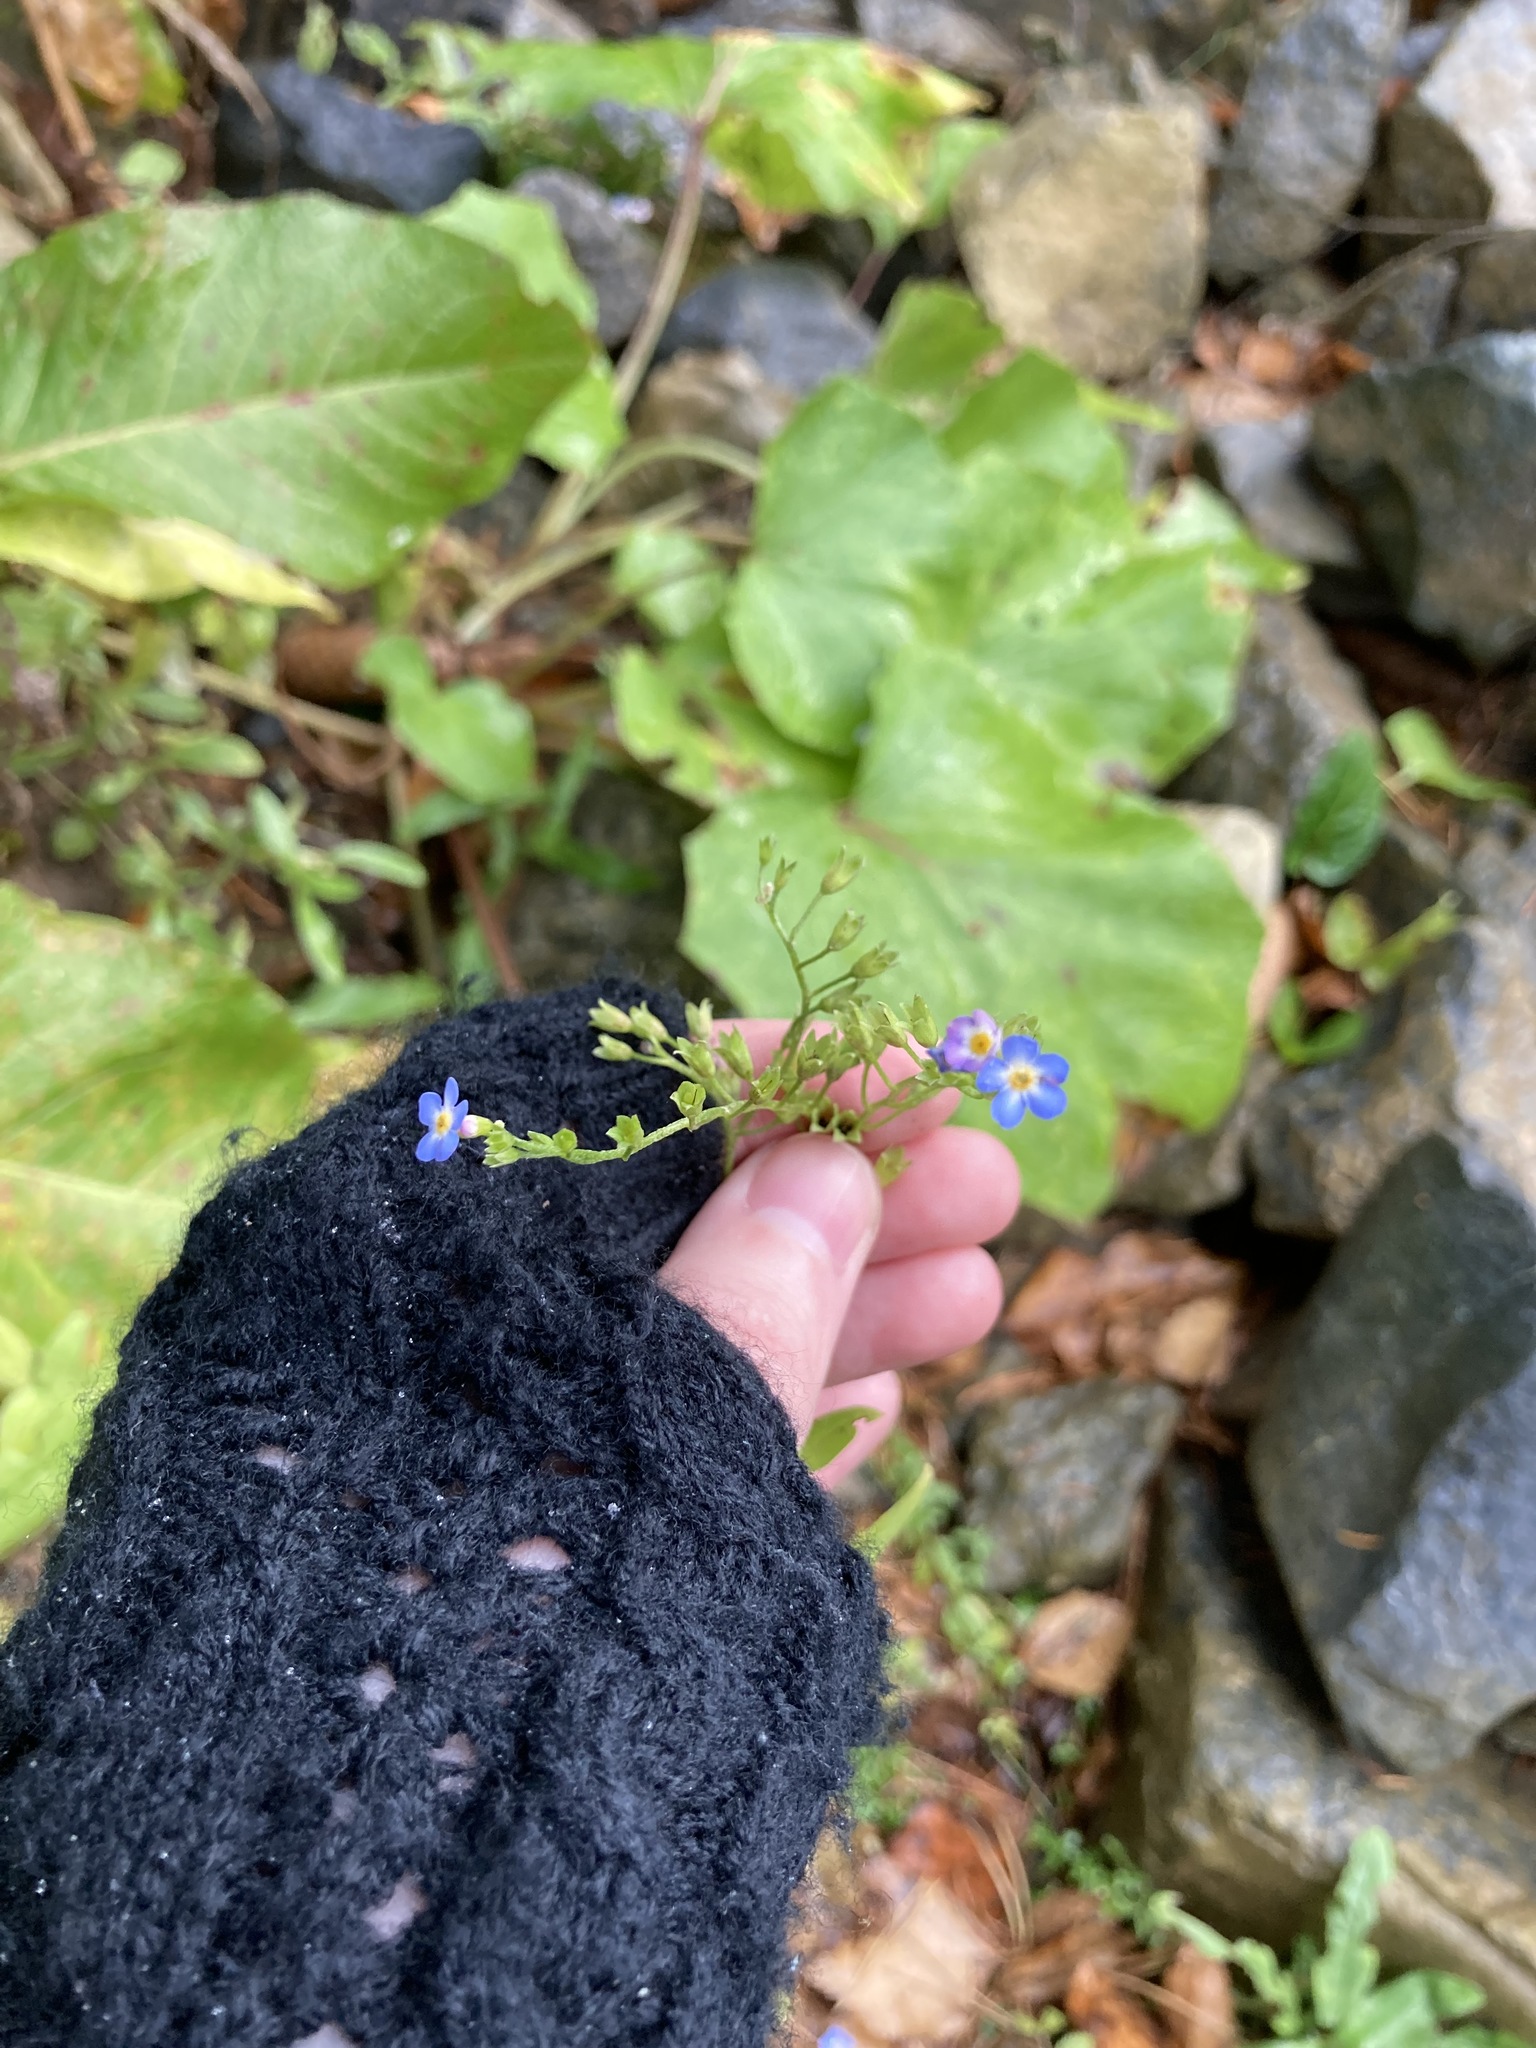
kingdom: Plantae
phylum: Tracheophyta
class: Magnoliopsida
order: Boraginales
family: Boraginaceae
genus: Myosotis
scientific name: Myosotis scorpioides
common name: Water forget-me-not
